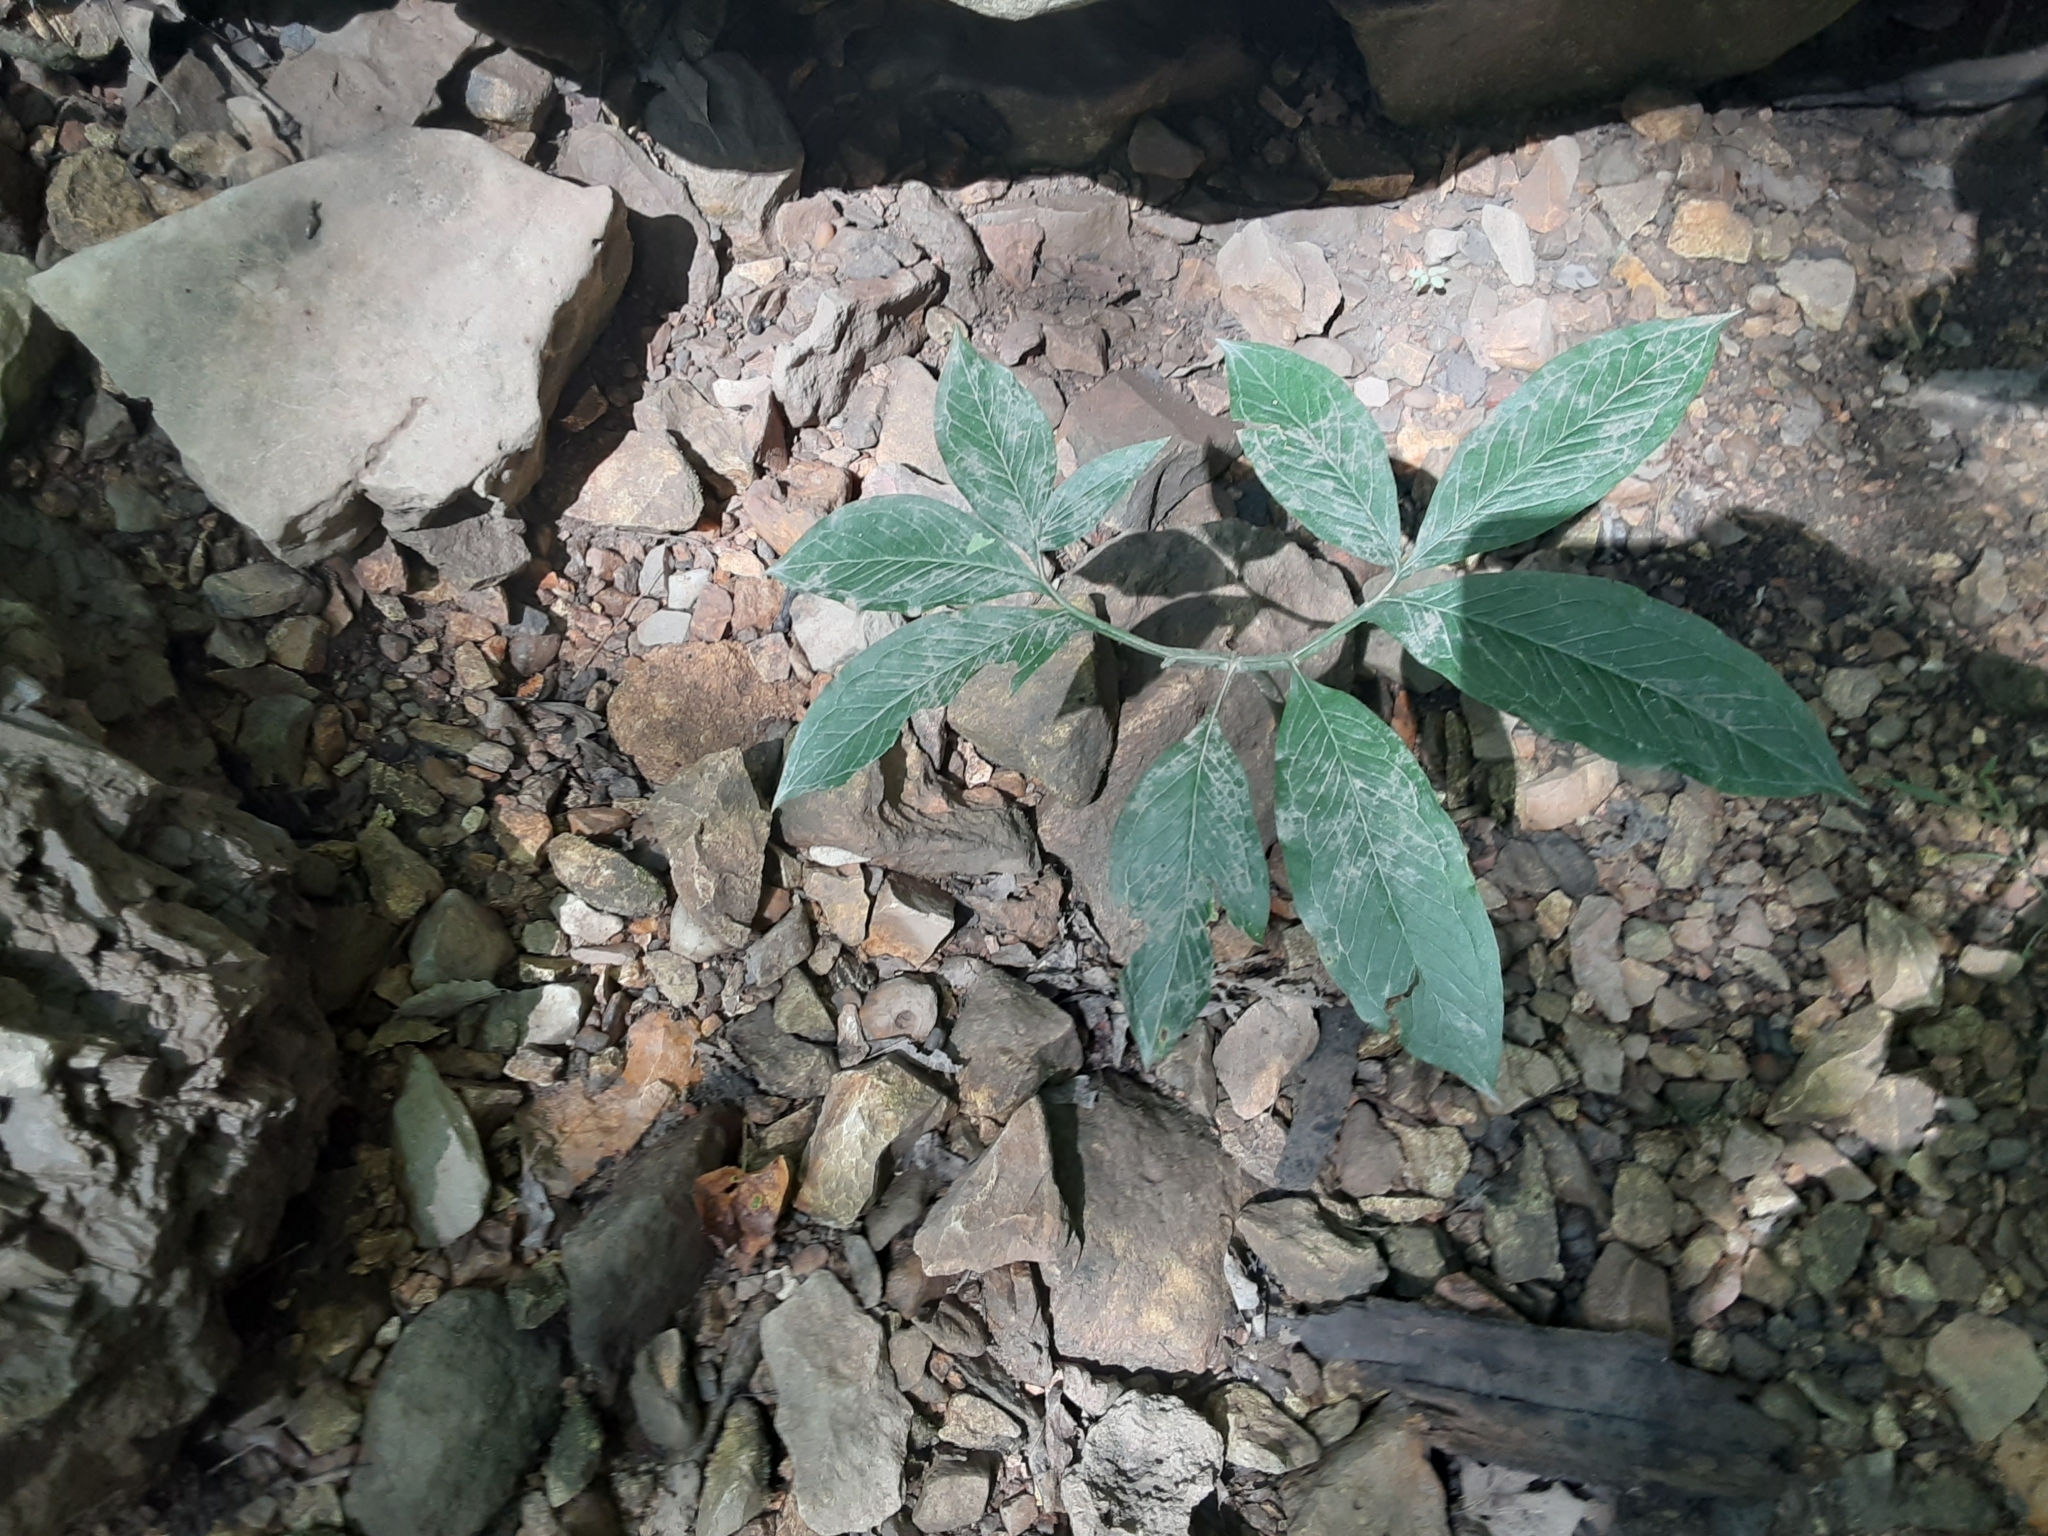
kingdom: Plantae
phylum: Tracheophyta
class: Liliopsida
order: Alismatales
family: Araceae
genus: Arisaema
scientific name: Arisaema dracontium
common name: Dragon-arum
